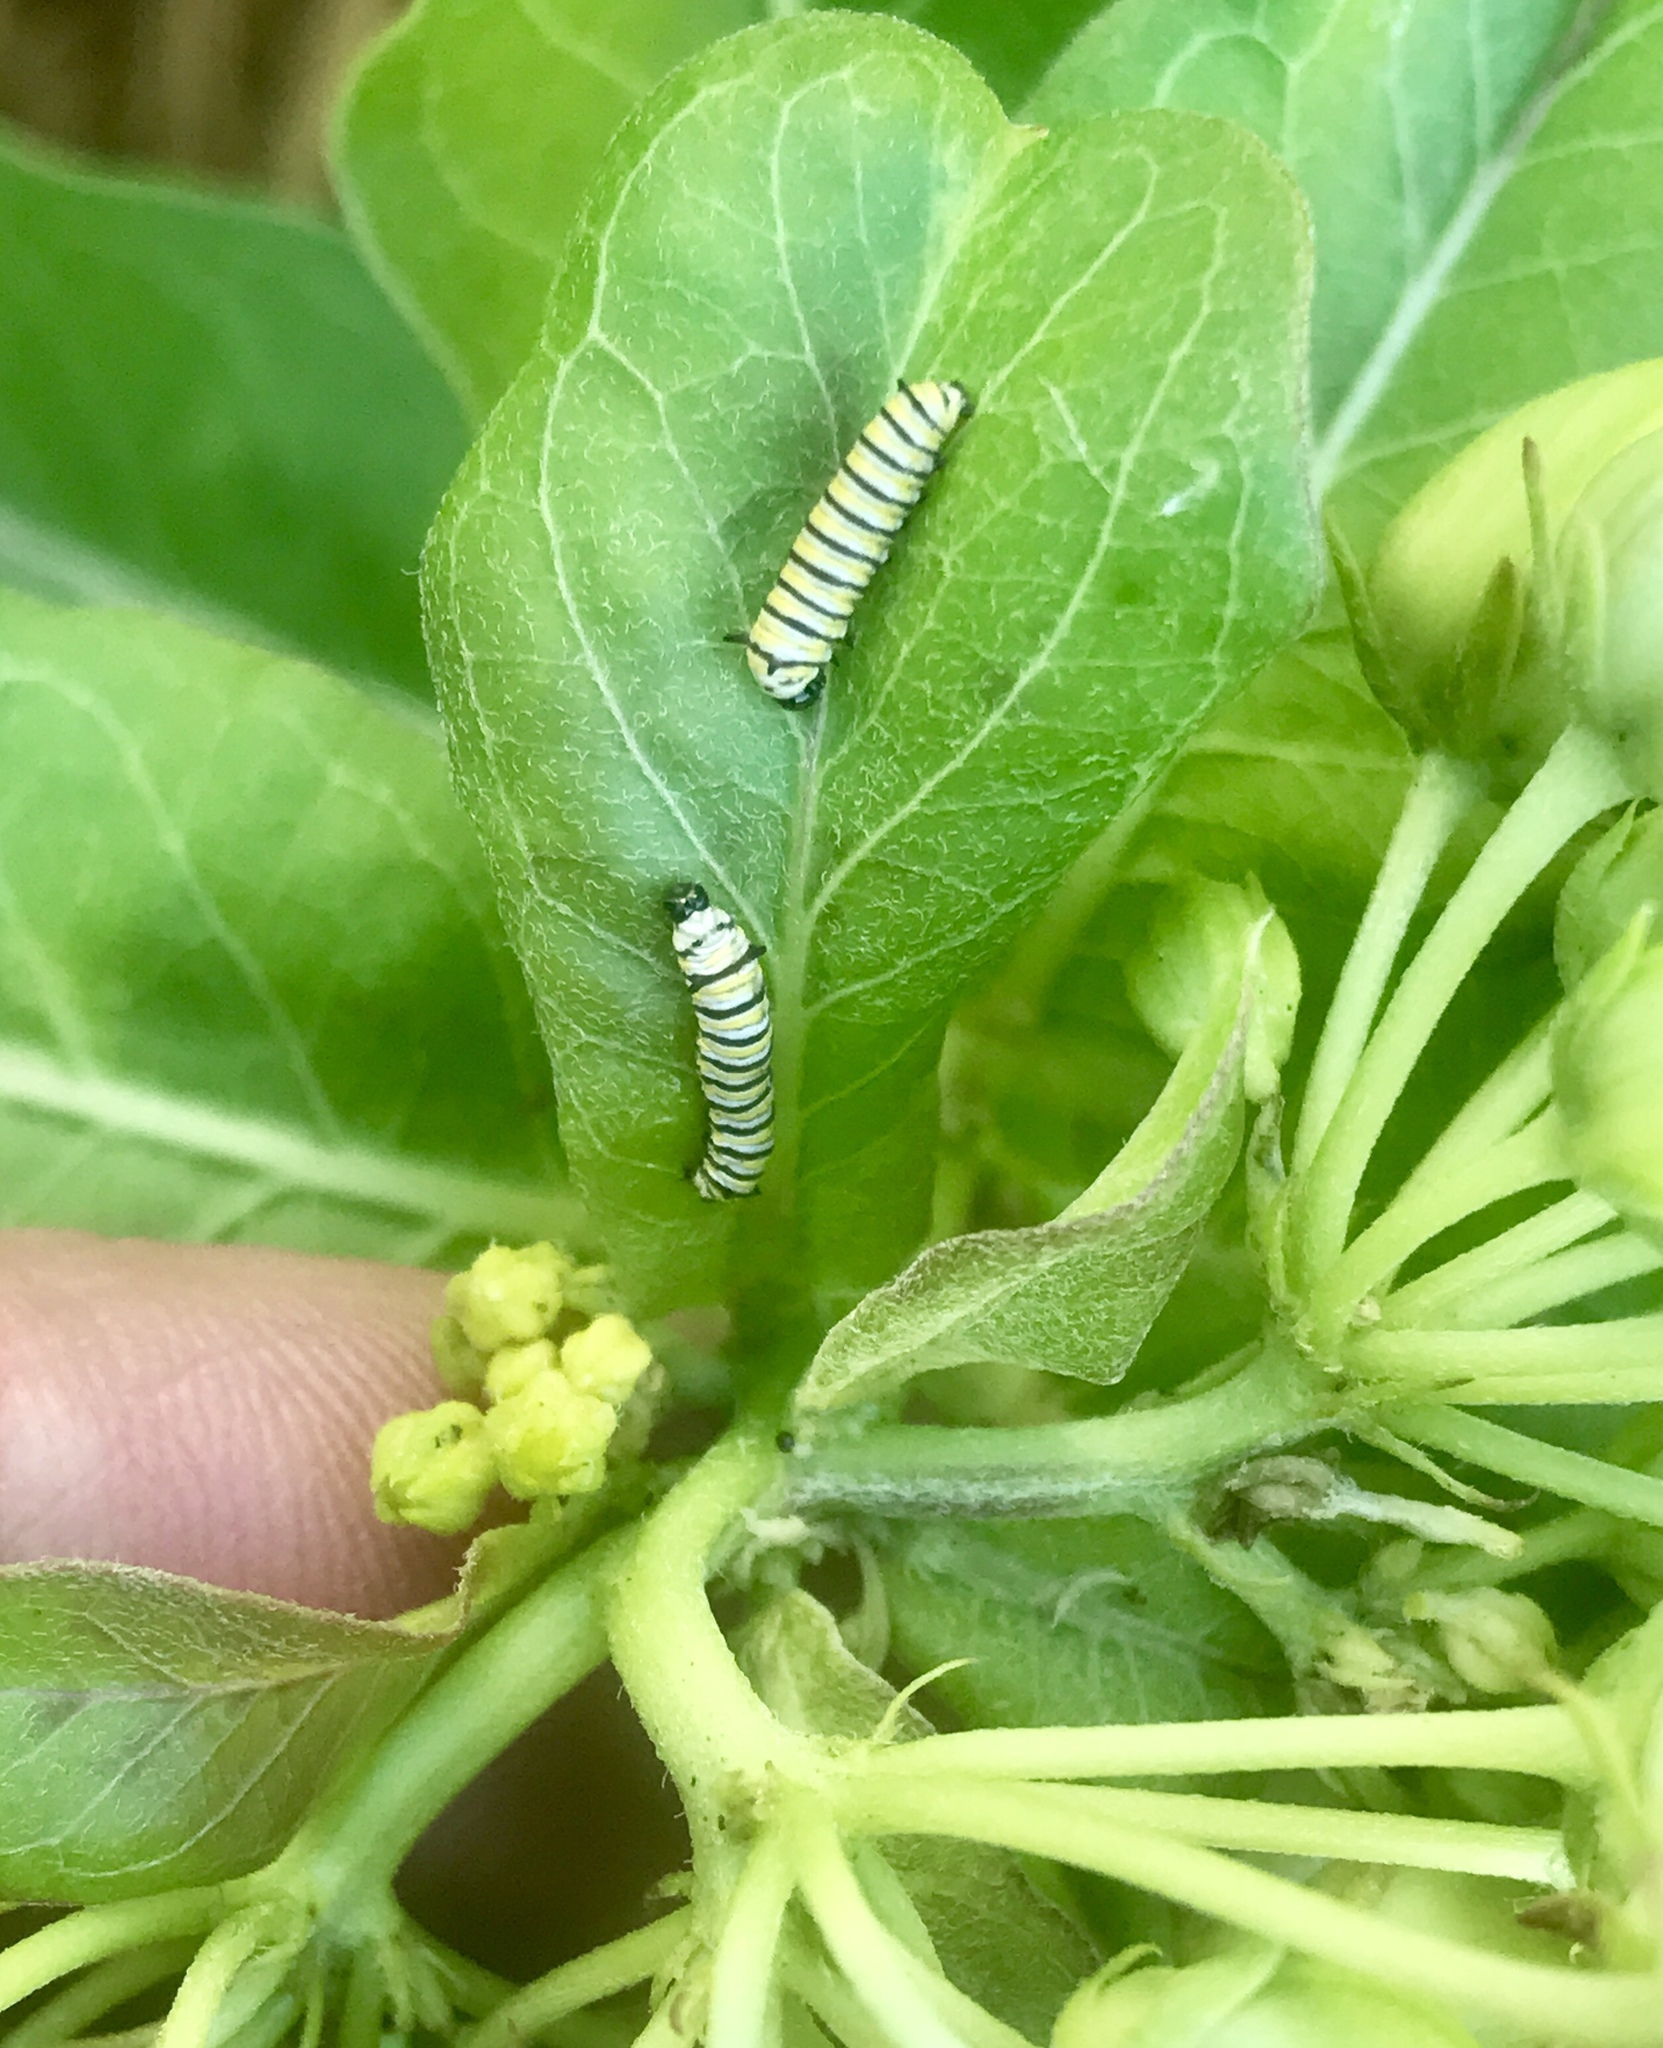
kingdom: Animalia
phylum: Arthropoda
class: Insecta
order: Lepidoptera
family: Nymphalidae
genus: Danaus
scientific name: Danaus plexippus
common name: Monarch
